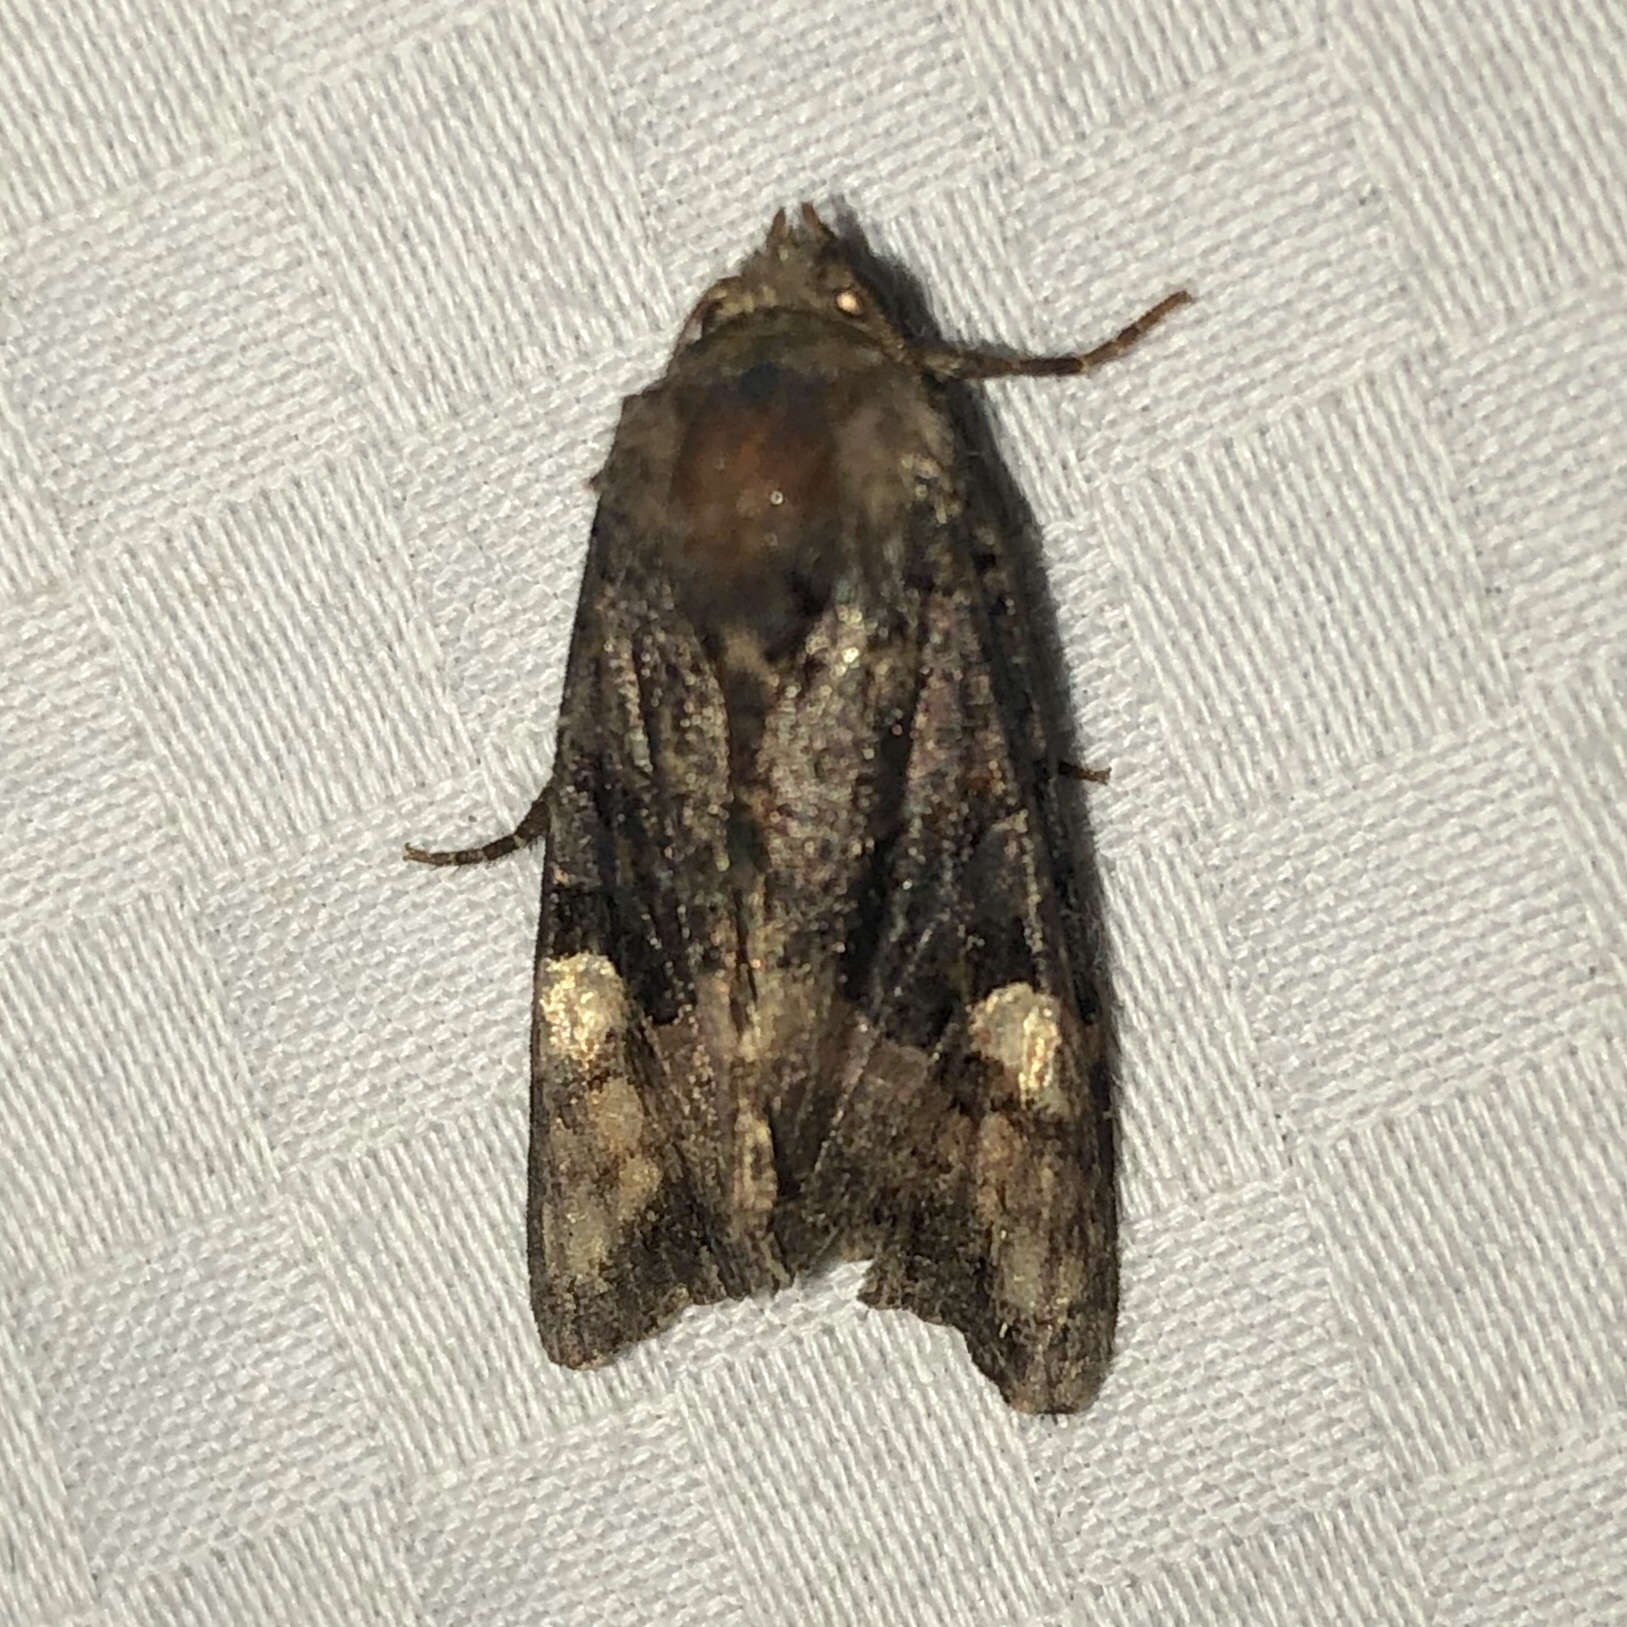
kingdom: Animalia
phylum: Arthropoda
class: Insecta
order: Lepidoptera
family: Noctuidae
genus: Euplexia
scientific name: Euplexia benesimilis
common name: American angle shades
